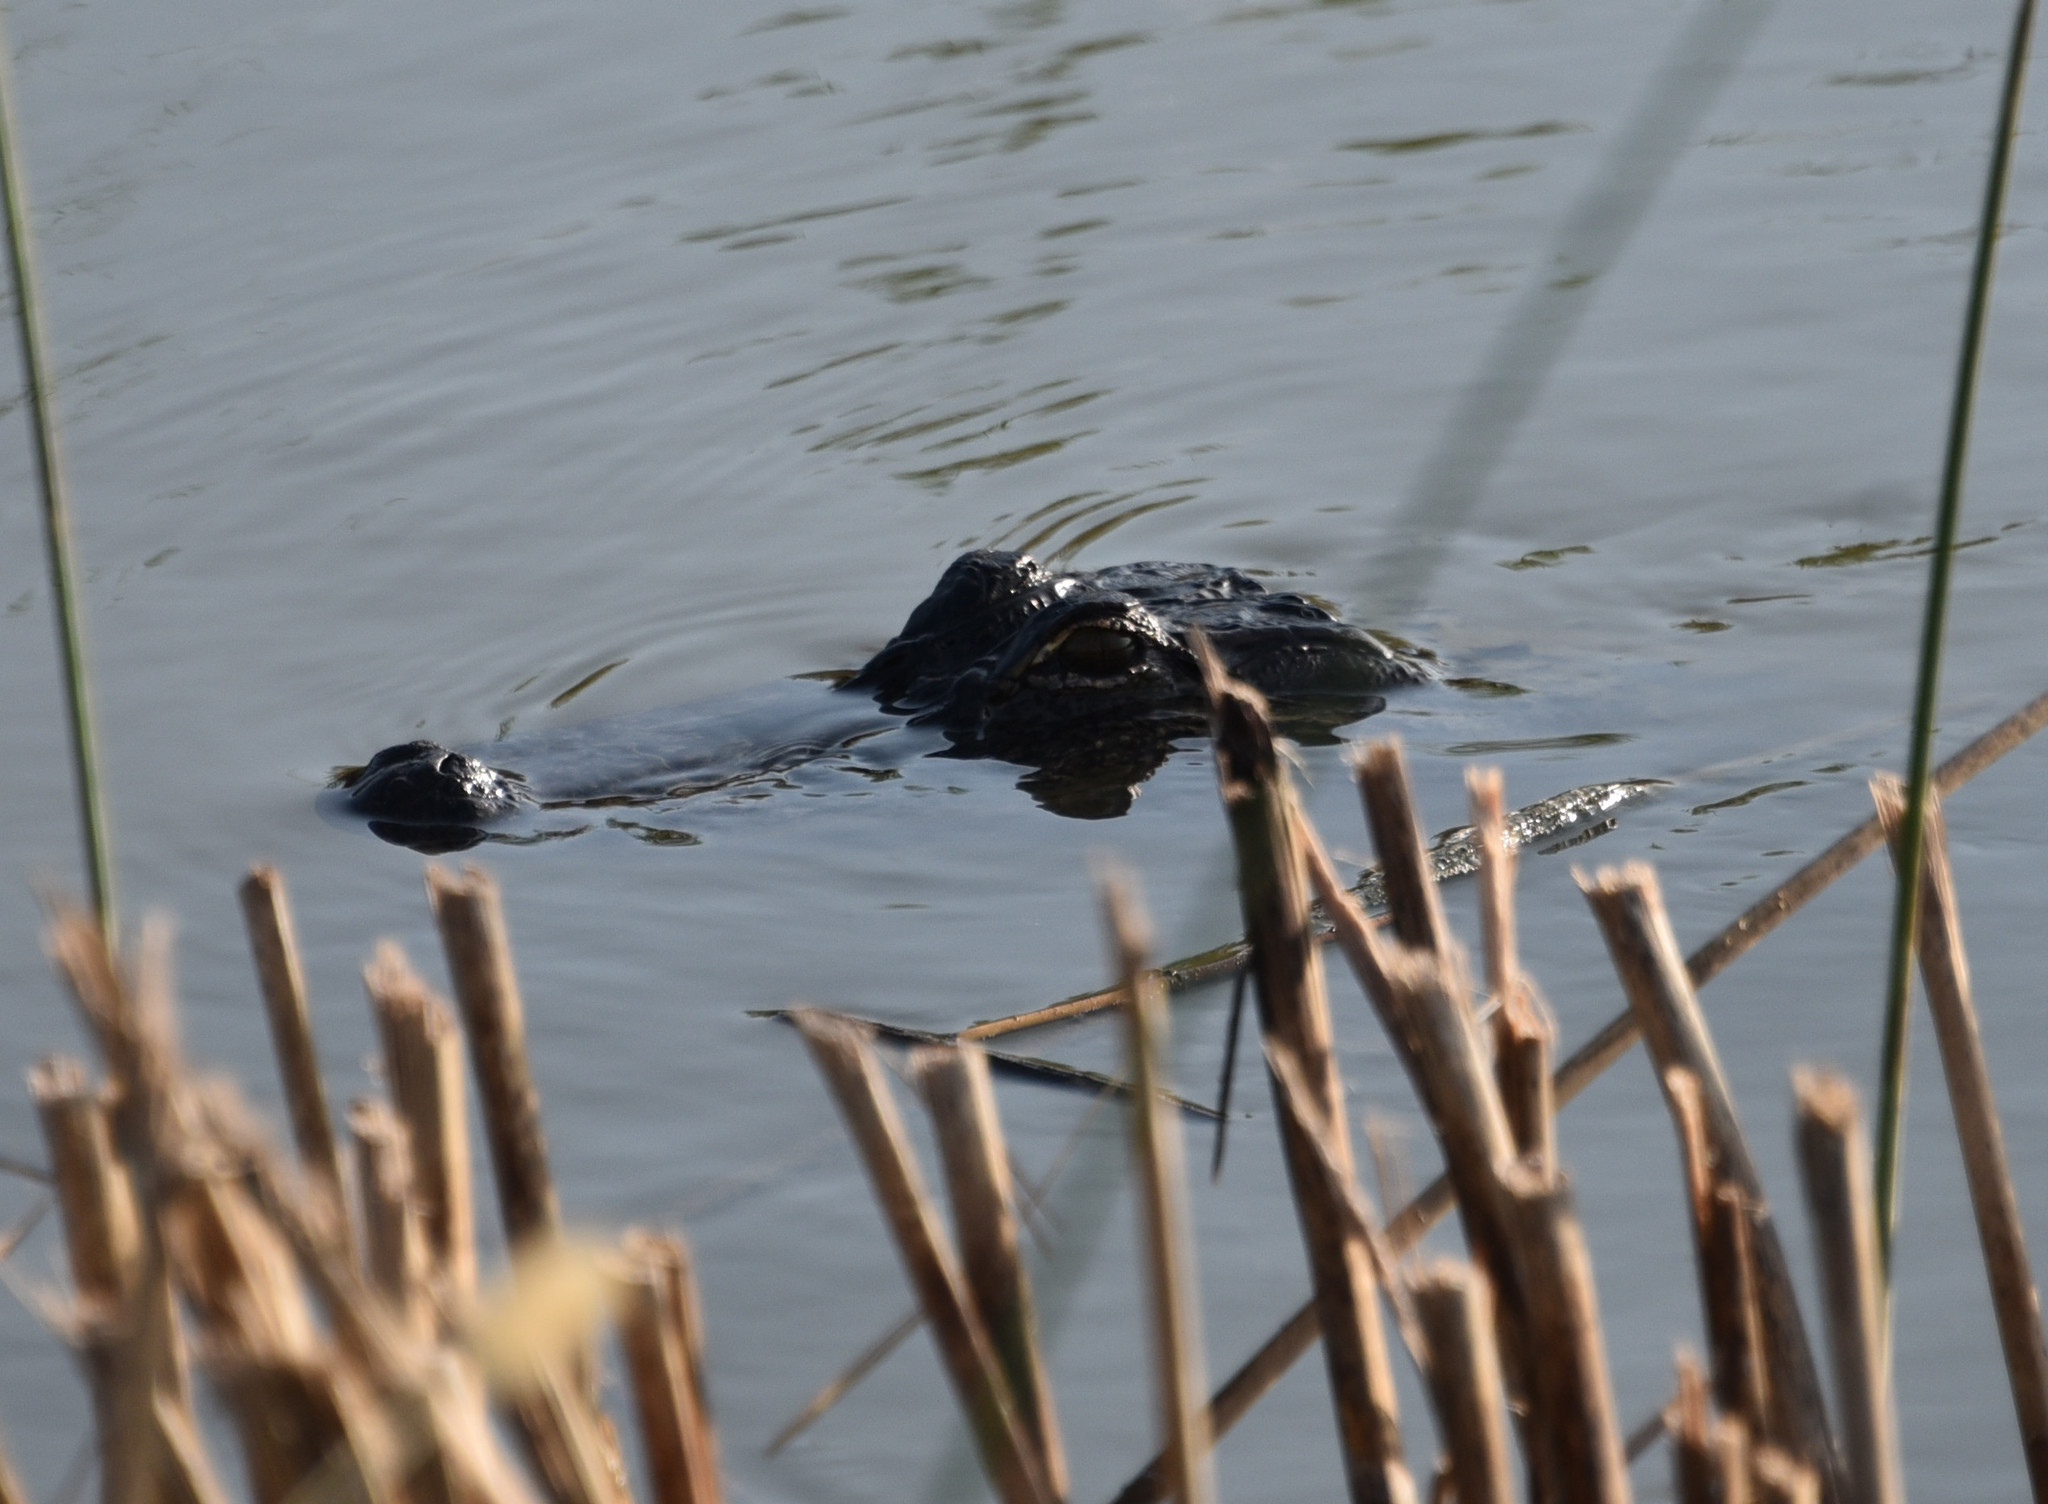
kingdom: Animalia
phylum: Chordata
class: Crocodylia
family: Alligatoridae
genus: Alligator
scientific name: Alligator mississippiensis
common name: American alligator
